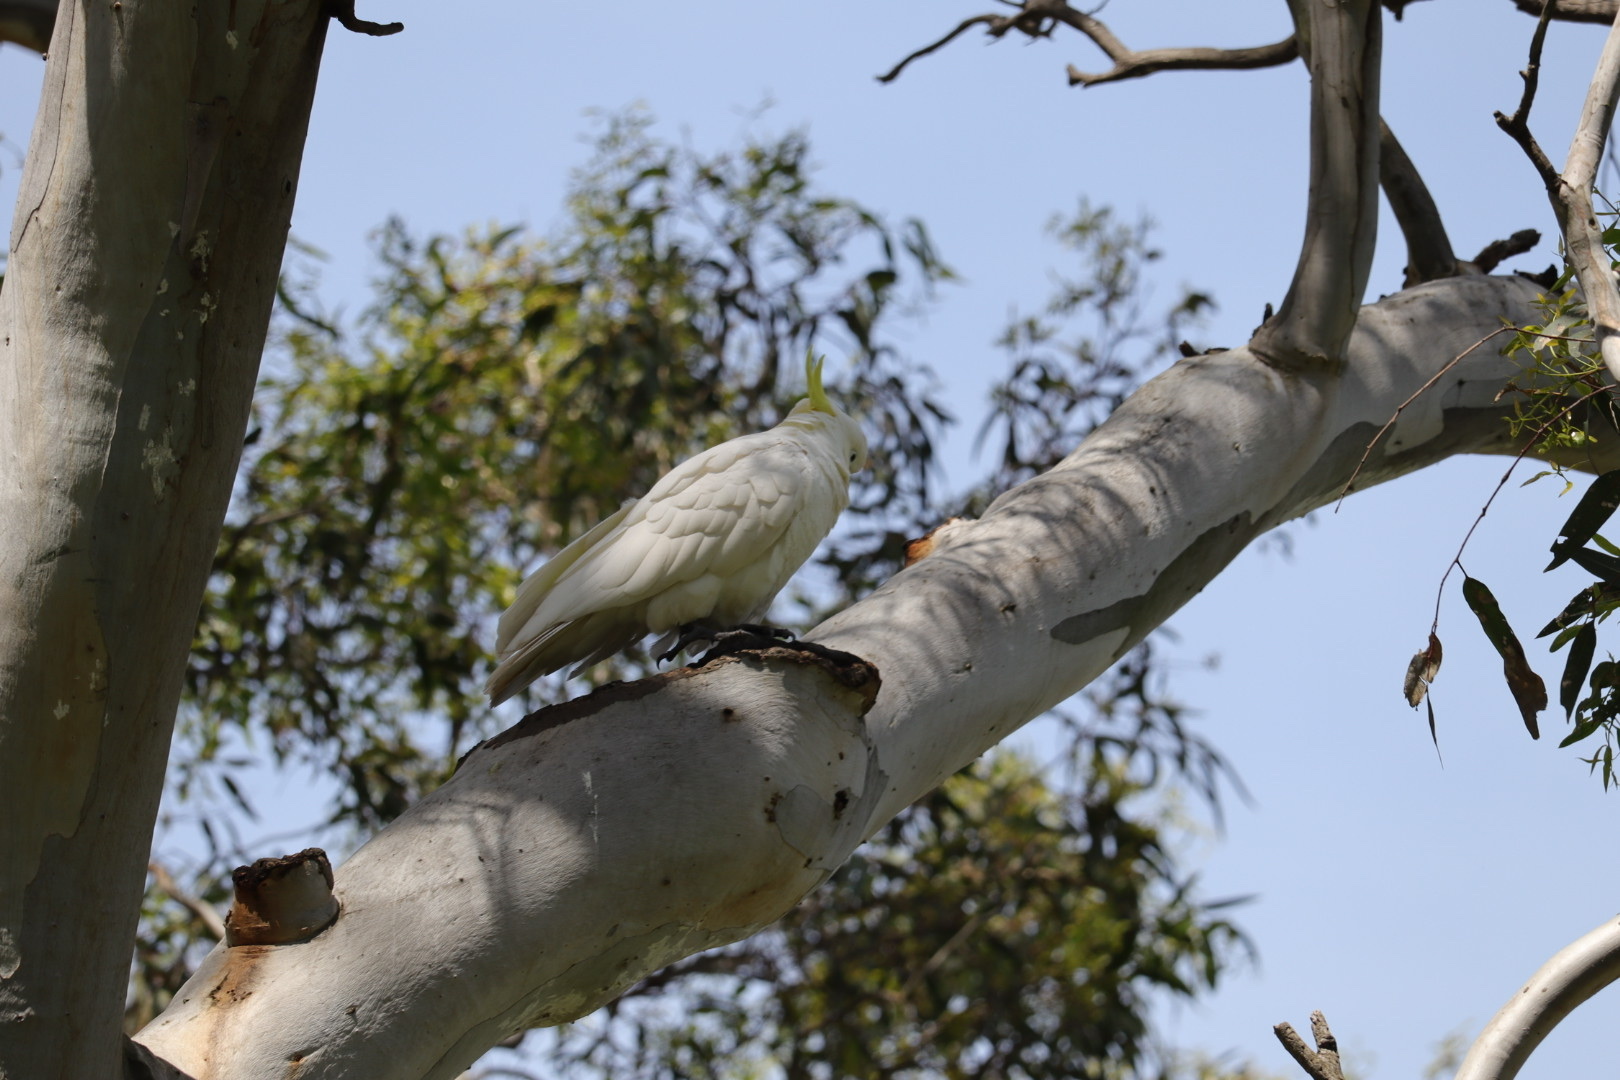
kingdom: Animalia
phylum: Chordata
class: Aves
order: Psittaciformes
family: Psittacidae
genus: Cacatua
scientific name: Cacatua galerita
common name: Sulphur-crested cockatoo
